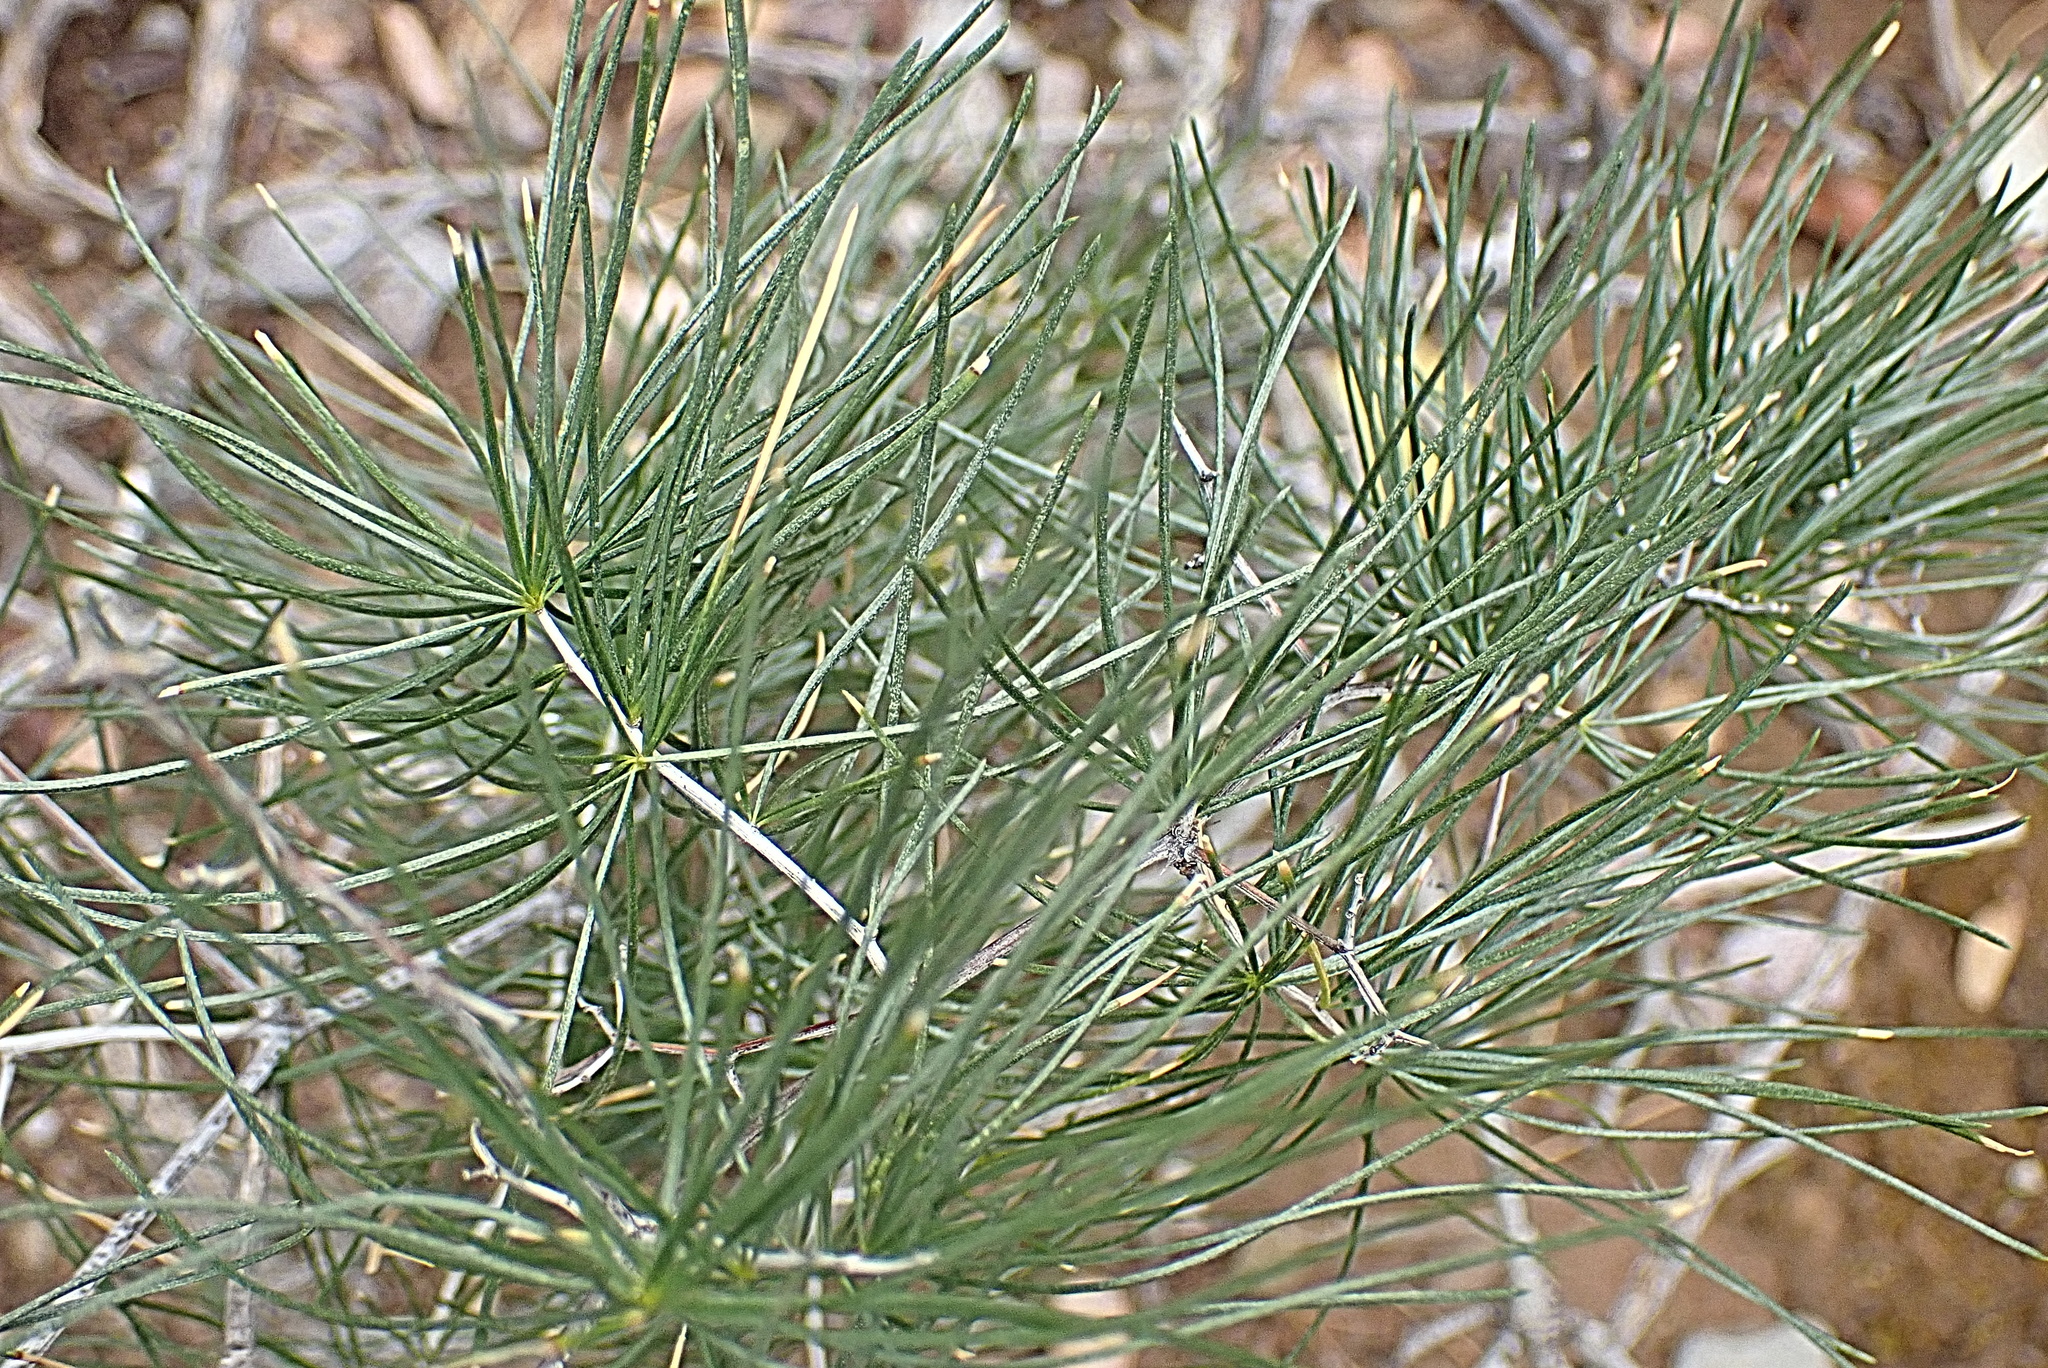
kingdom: Plantae
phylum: Tracheophyta
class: Liliopsida
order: Asparagales
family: Asparagaceae
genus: Asparagus
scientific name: Asparagus retrofractus
